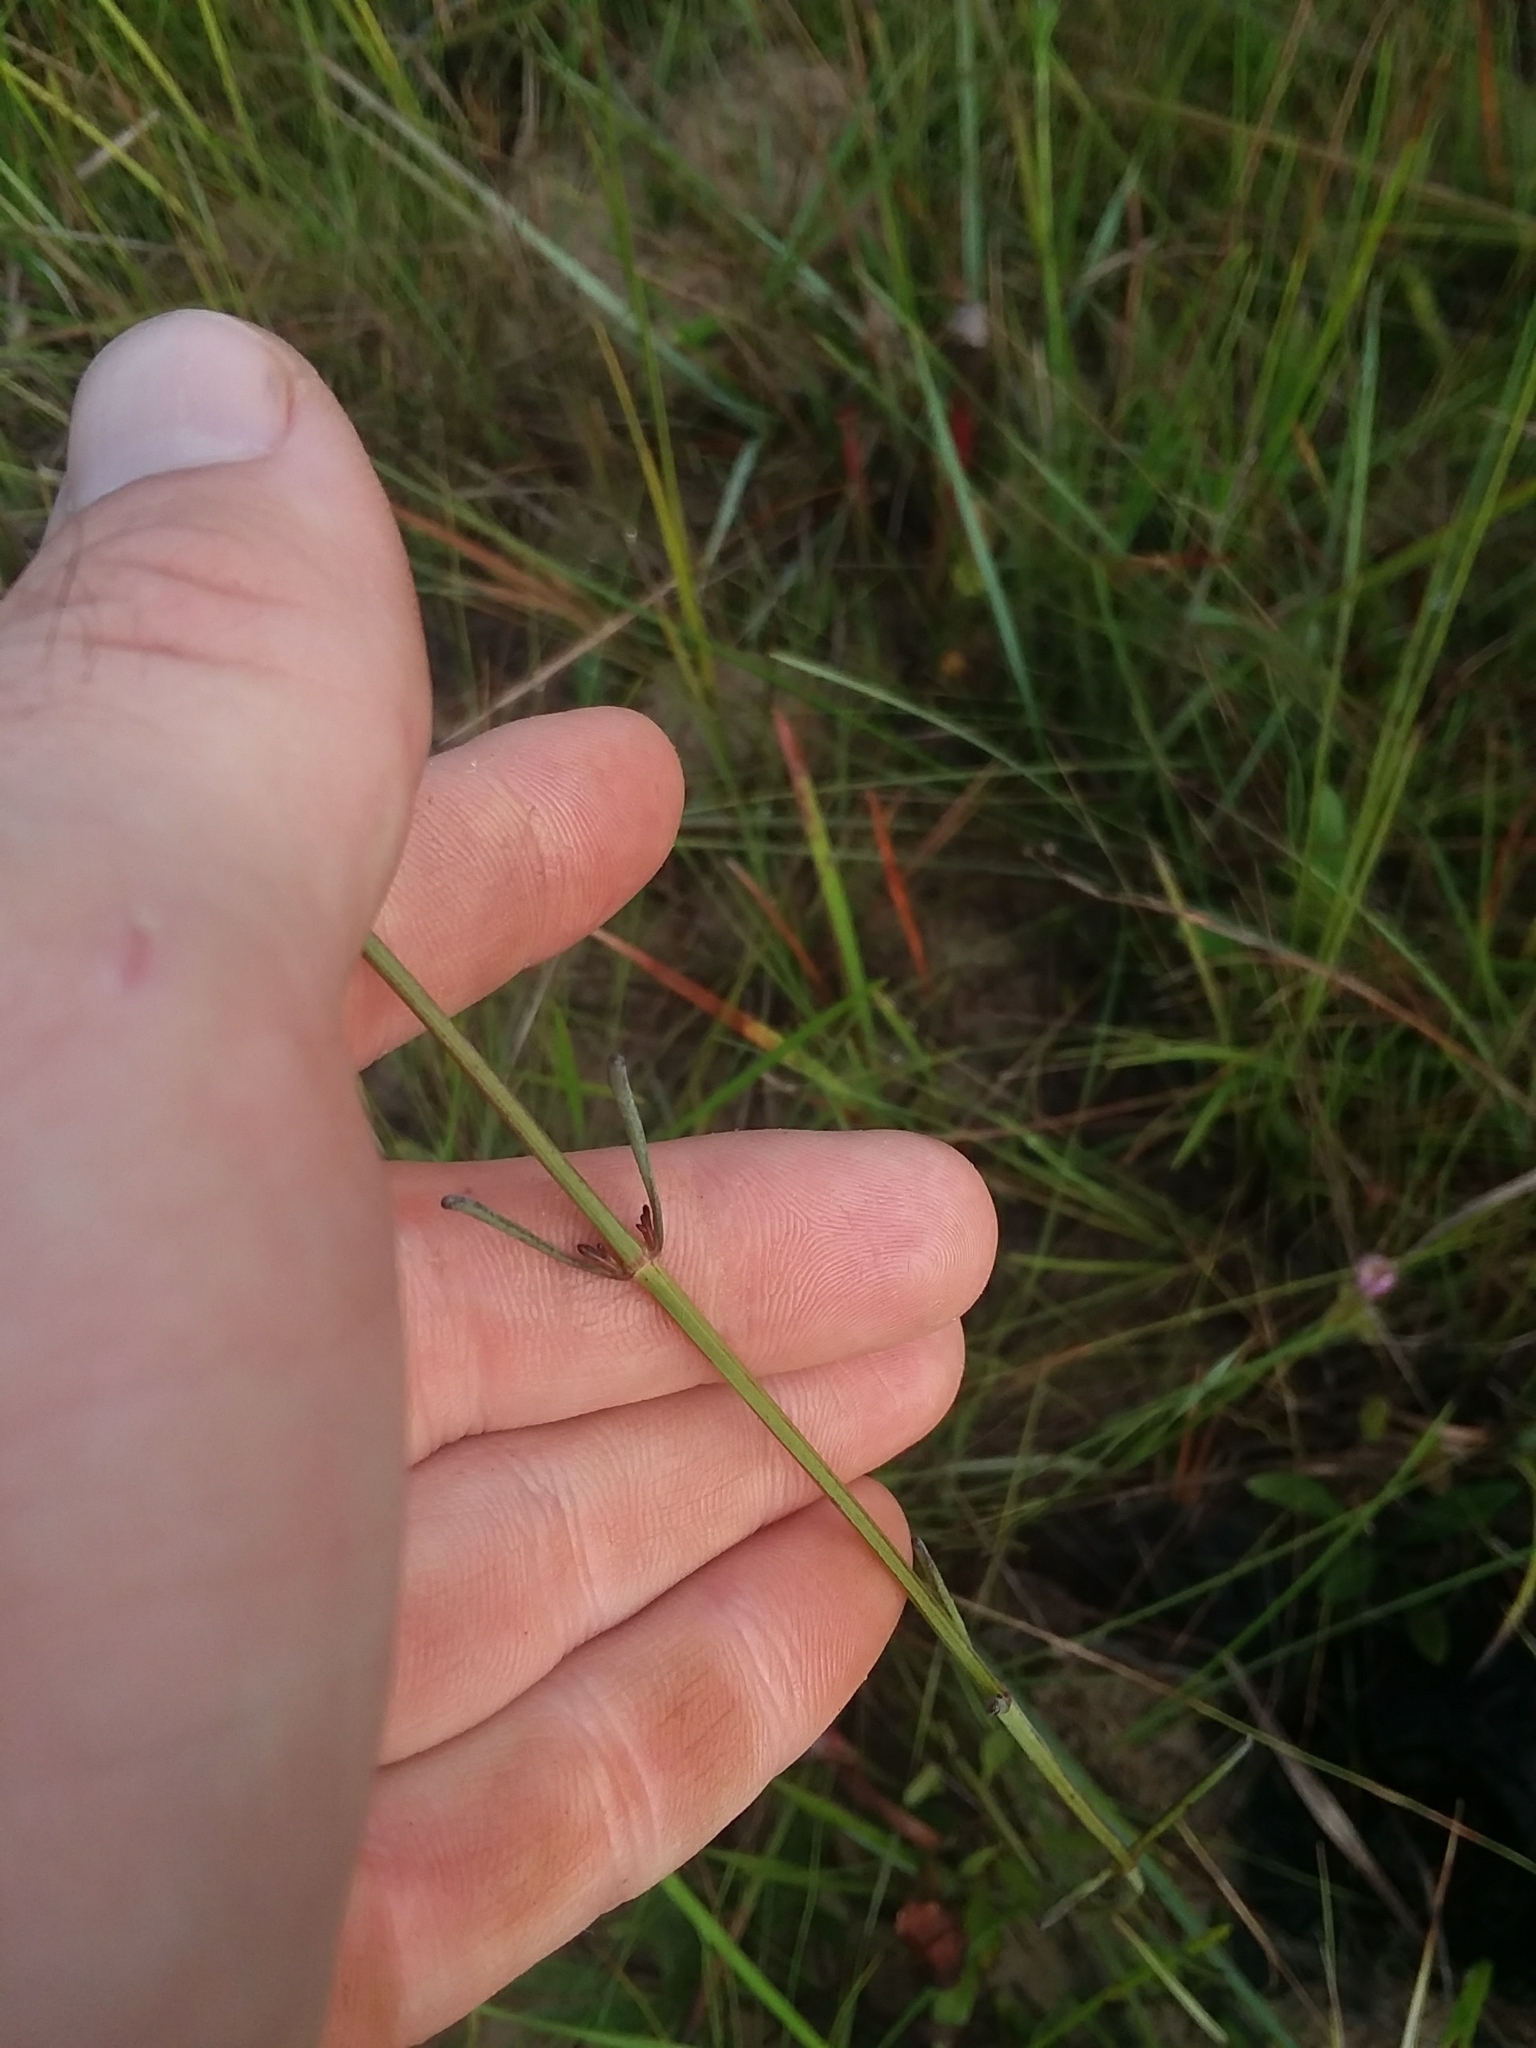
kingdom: Plantae
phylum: Tracheophyta
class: Magnoliopsida
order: Asterales
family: Asteraceae
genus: Coreopsis
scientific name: Coreopsis gladiata
